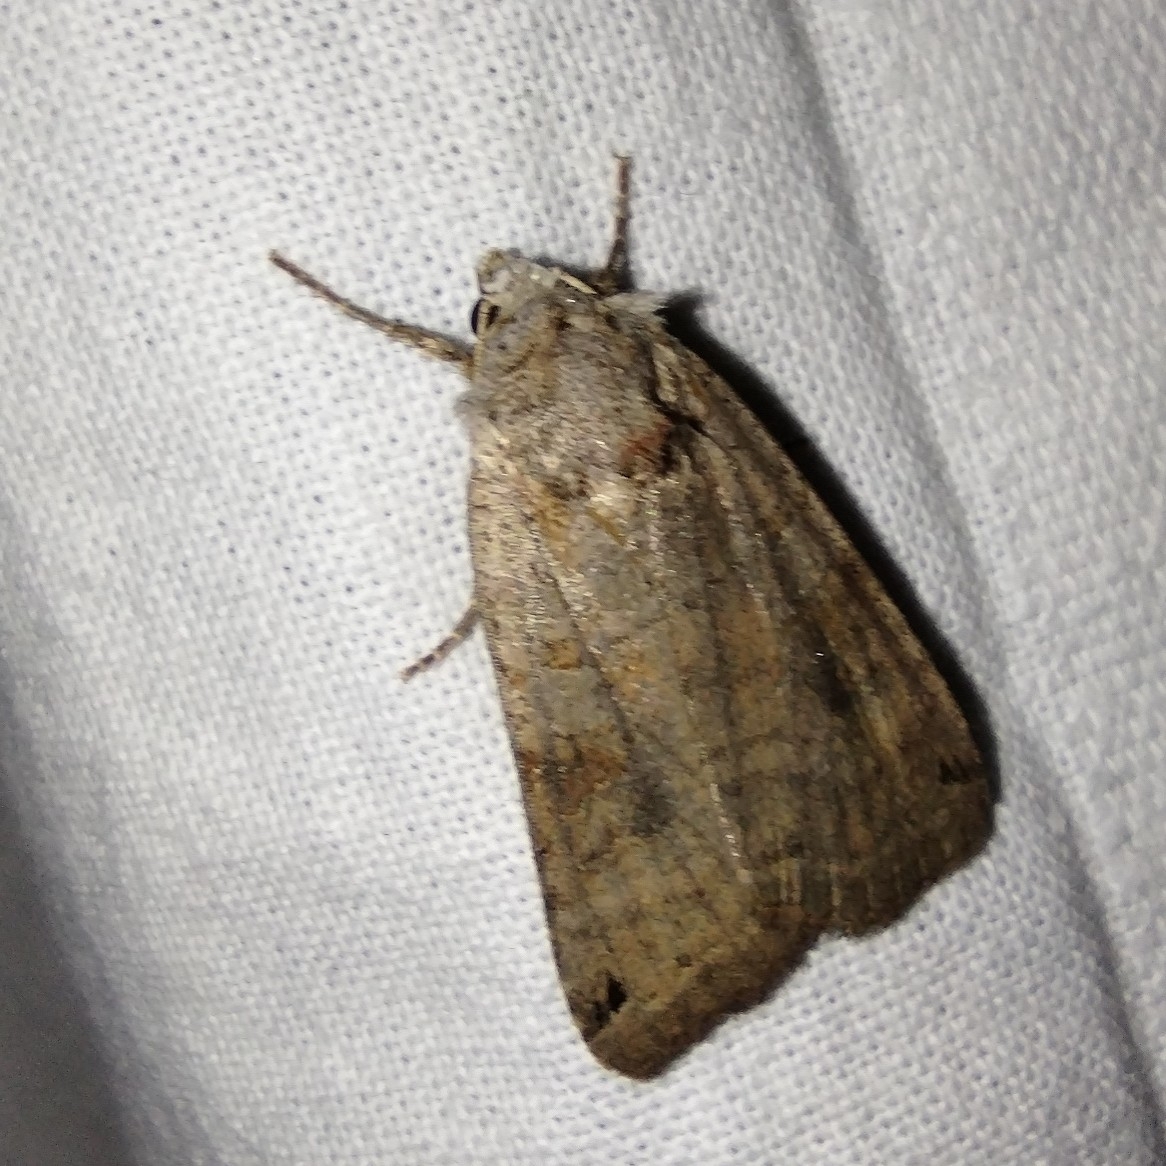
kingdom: Animalia
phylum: Arthropoda
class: Insecta
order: Lepidoptera
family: Noctuidae
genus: Xestia
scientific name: Xestia baja
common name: Dotted clay
